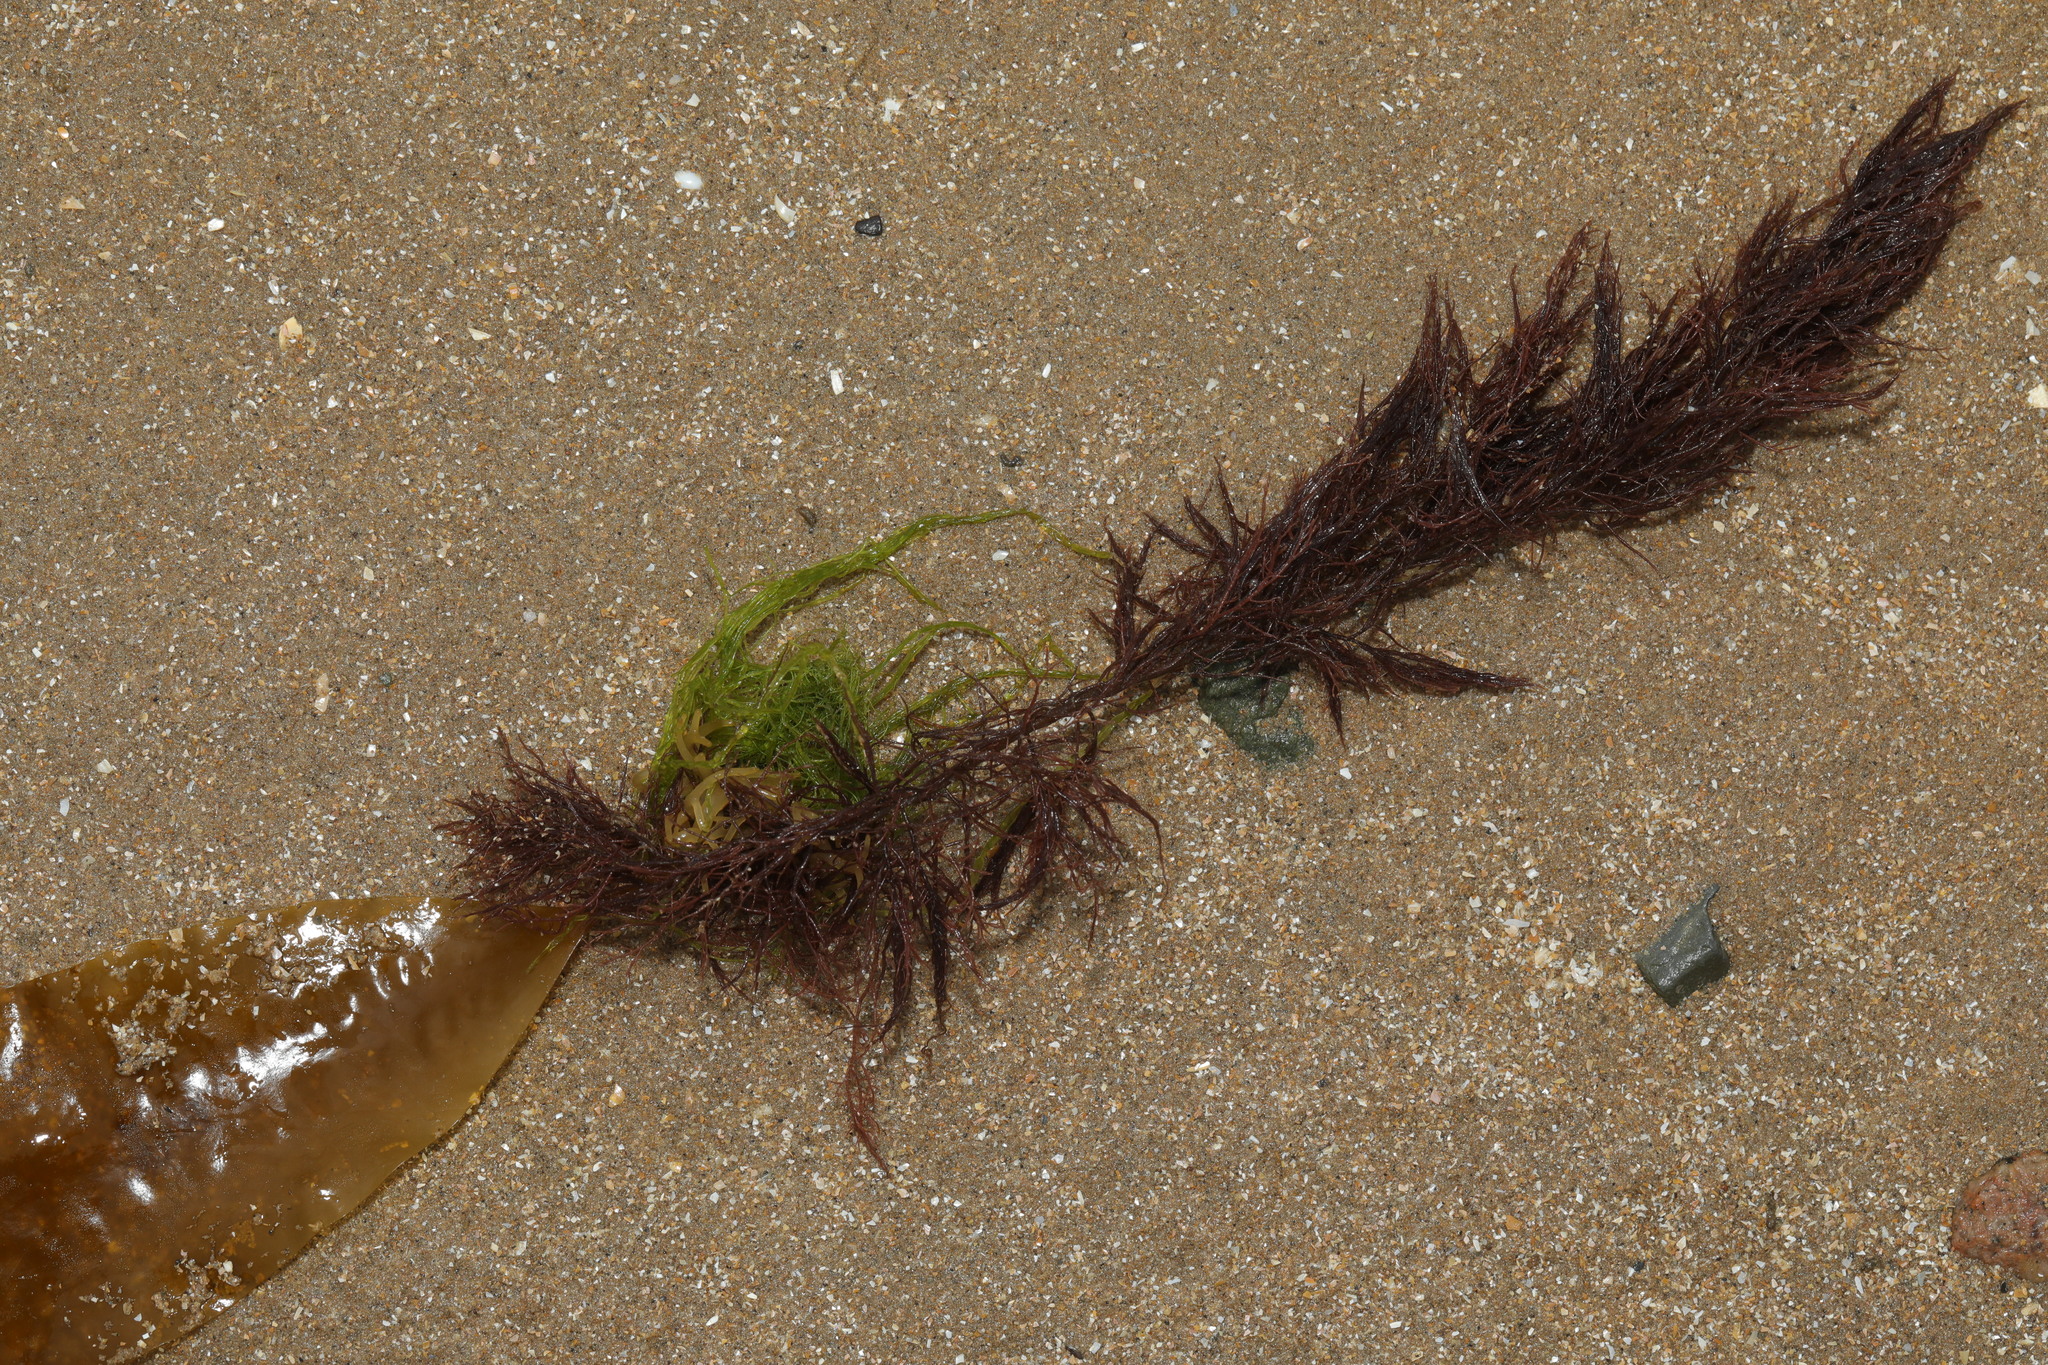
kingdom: Chromista
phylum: Ochrophyta
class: Phaeophyceae
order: Laminariales
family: Laminariaceae
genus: Saccharina
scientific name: Saccharina latissima
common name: Poor man's weather glass
